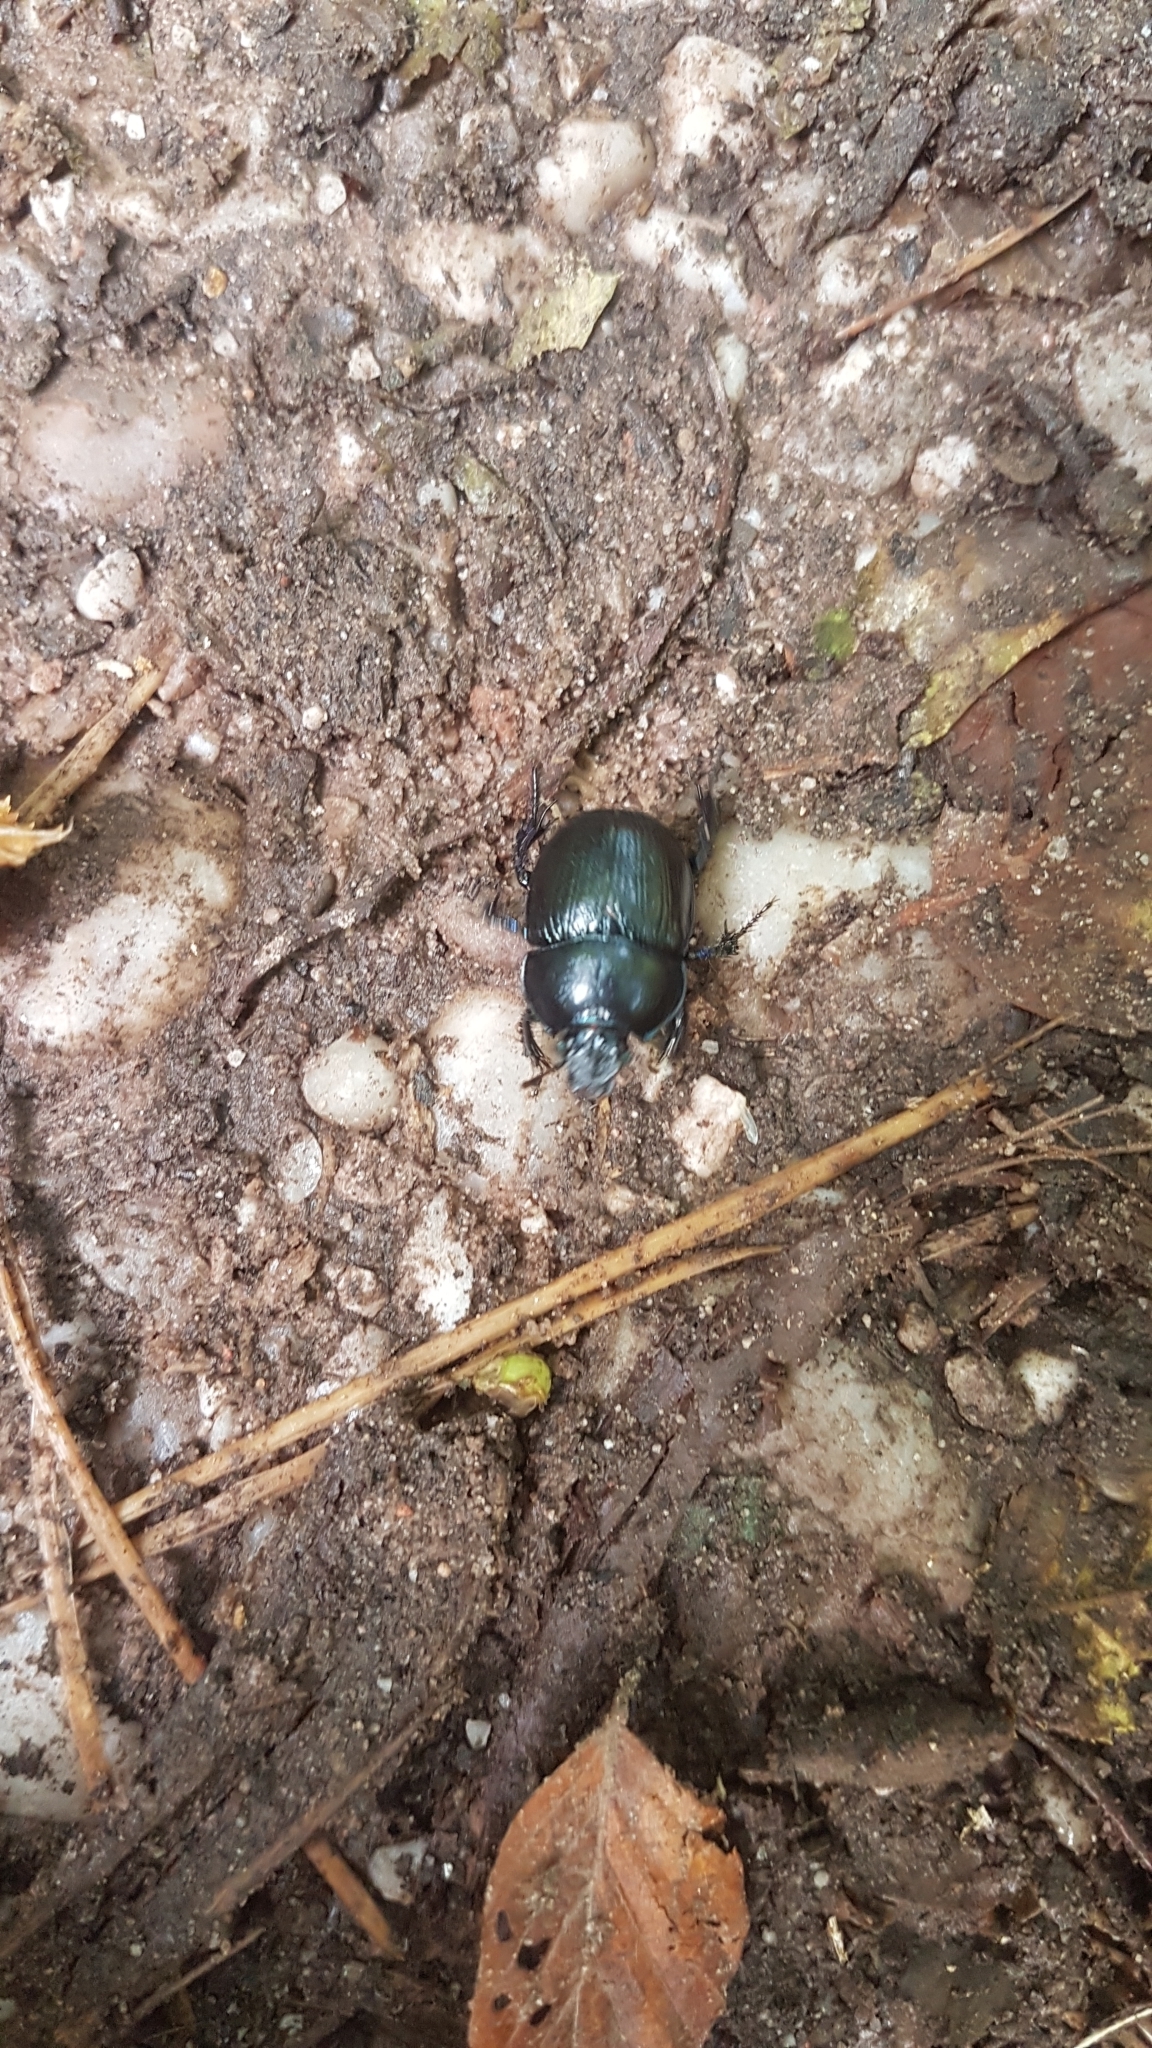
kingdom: Animalia
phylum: Arthropoda
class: Insecta
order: Coleoptera
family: Geotrupidae
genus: Anoplotrupes
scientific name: Anoplotrupes stercorosus
